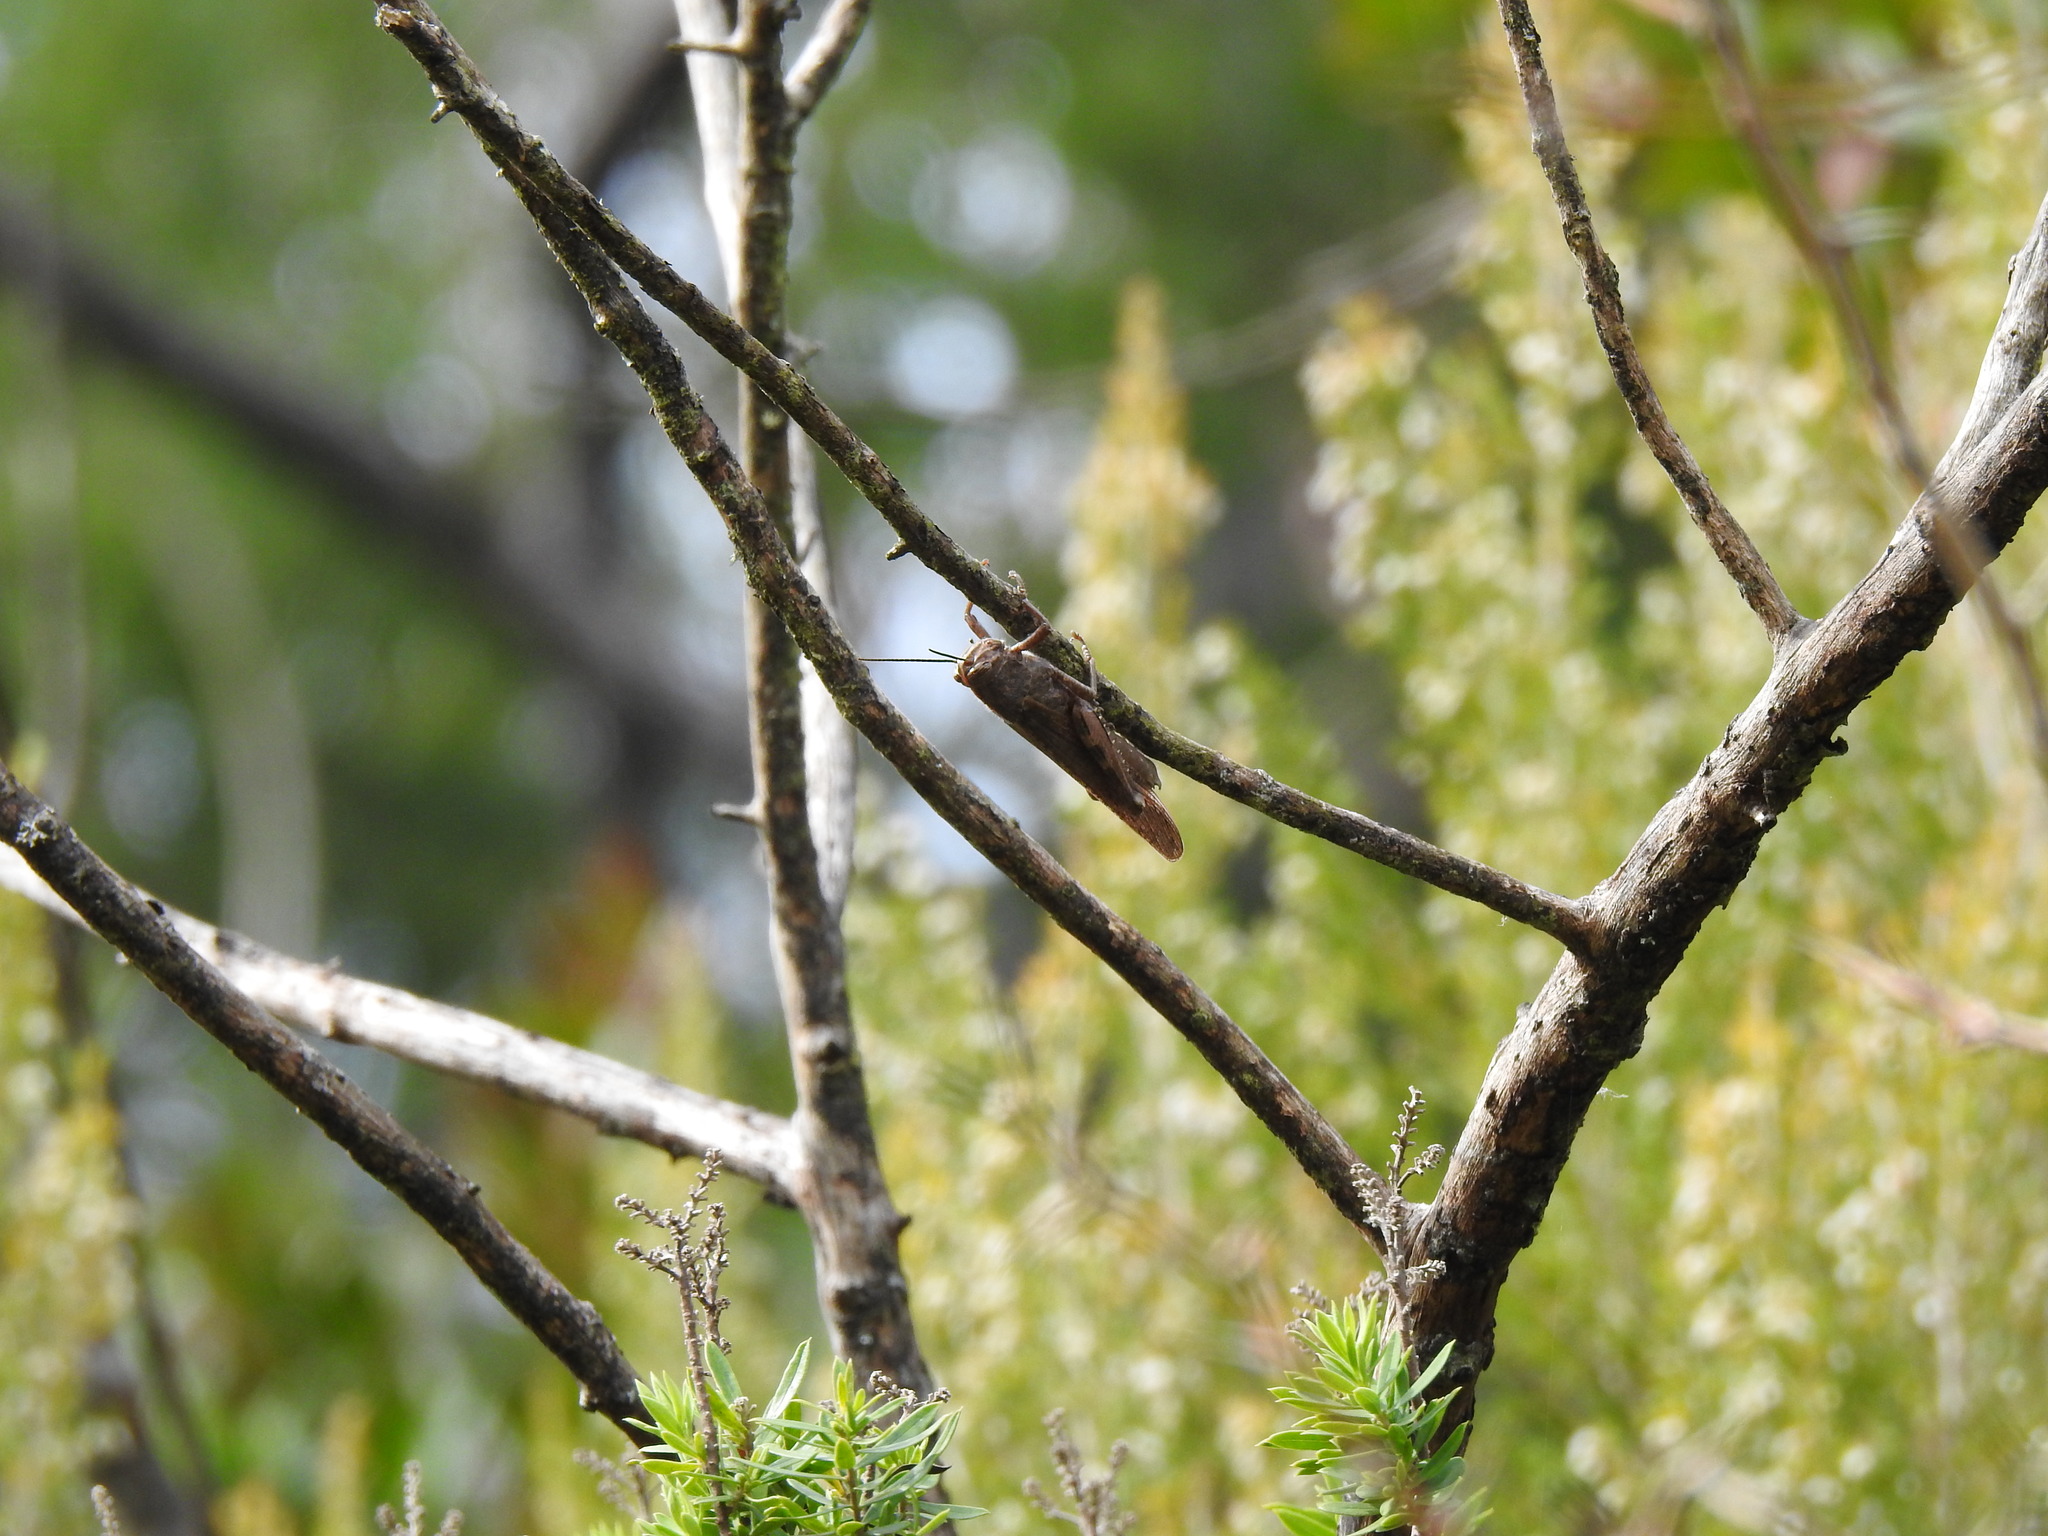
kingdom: Animalia
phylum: Arthropoda
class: Insecta
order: Orthoptera
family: Acrididae
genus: Anacridium
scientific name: Anacridium aegyptium
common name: Egyptian grasshopper
